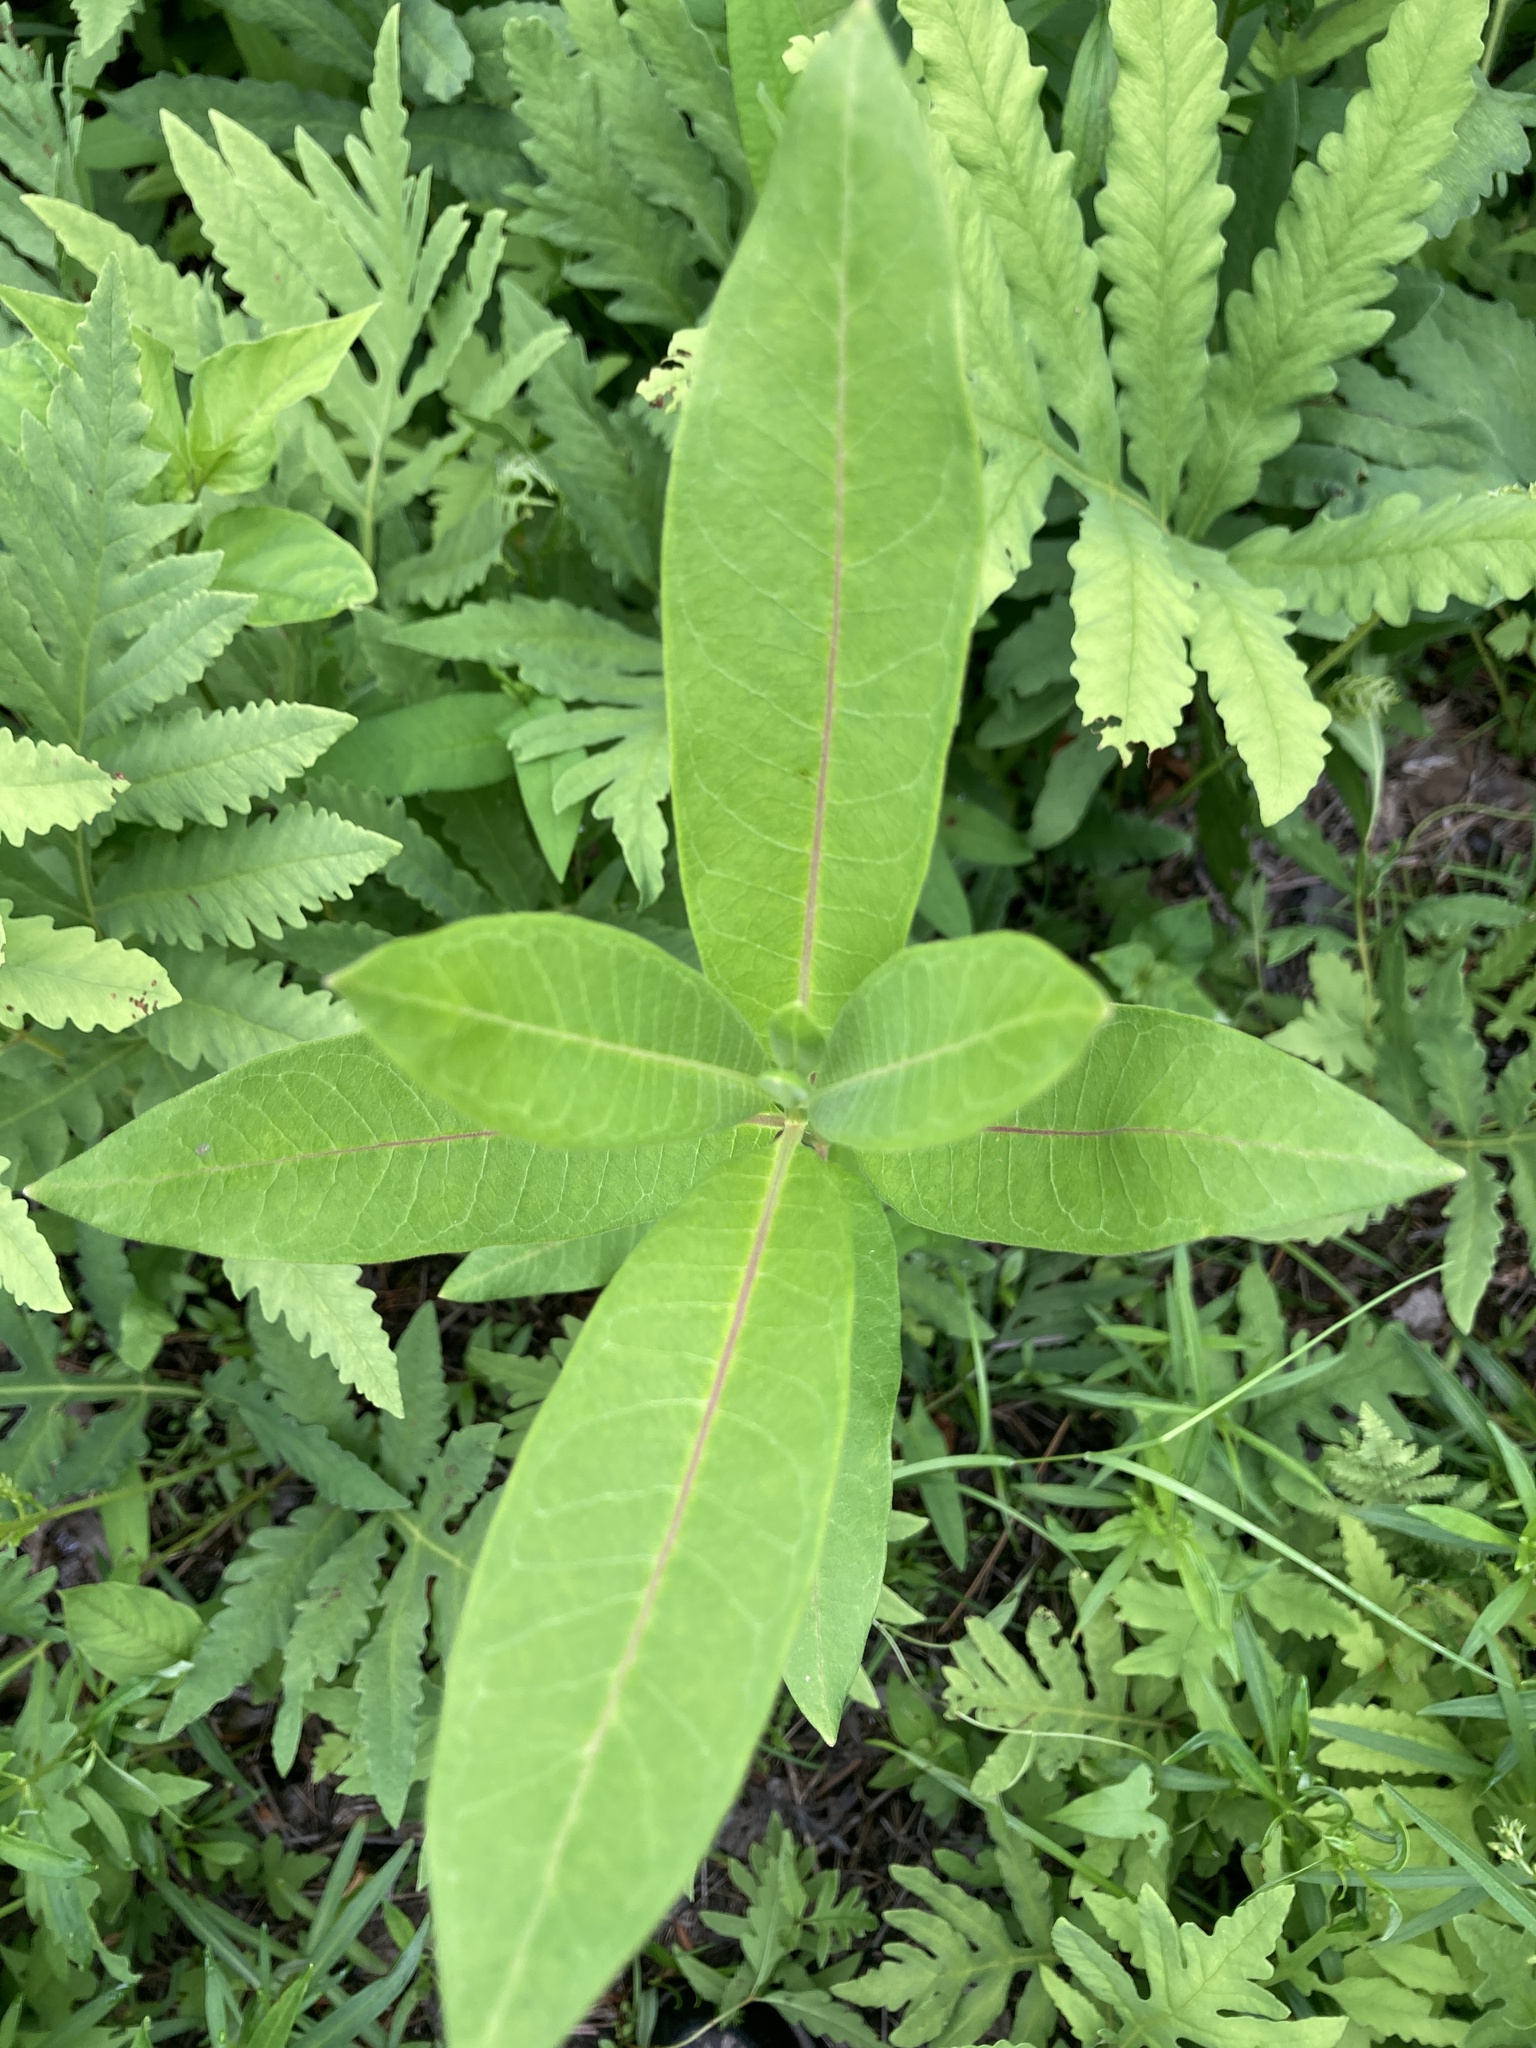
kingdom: Plantae
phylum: Tracheophyta
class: Magnoliopsida
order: Gentianales
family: Apocynaceae
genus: Asclepias
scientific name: Asclepias syriaca
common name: Common milkweed
